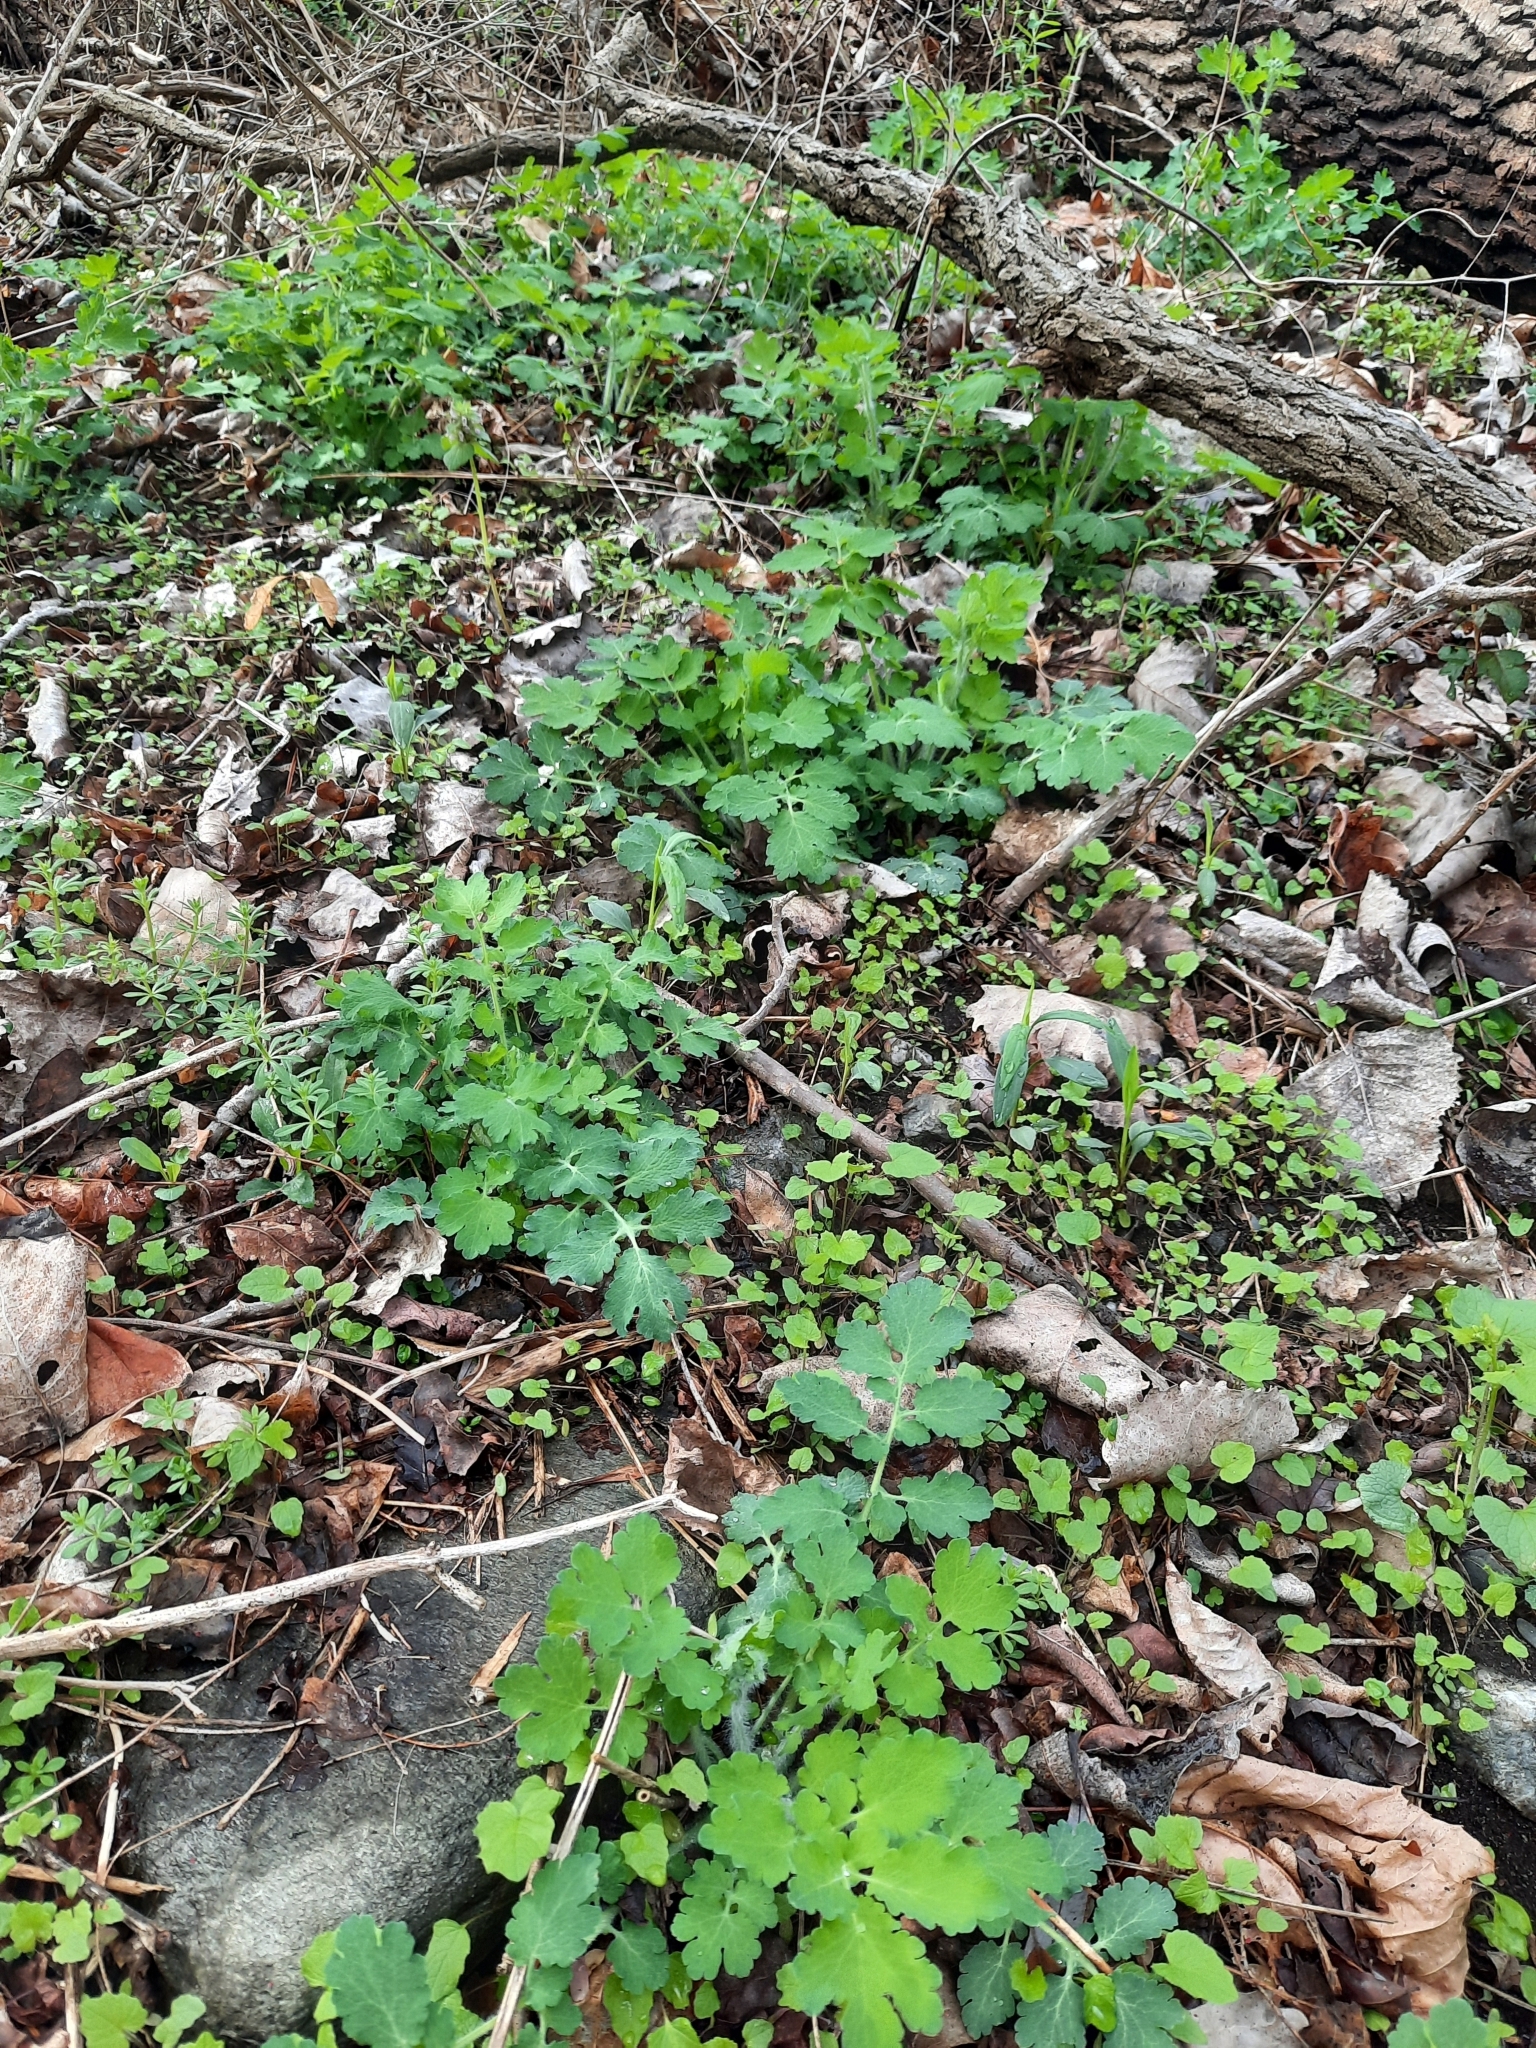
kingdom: Plantae
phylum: Tracheophyta
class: Magnoliopsida
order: Ranunculales
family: Papaveraceae
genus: Chelidonium
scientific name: Chelidonium majus
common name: Greater celandine
